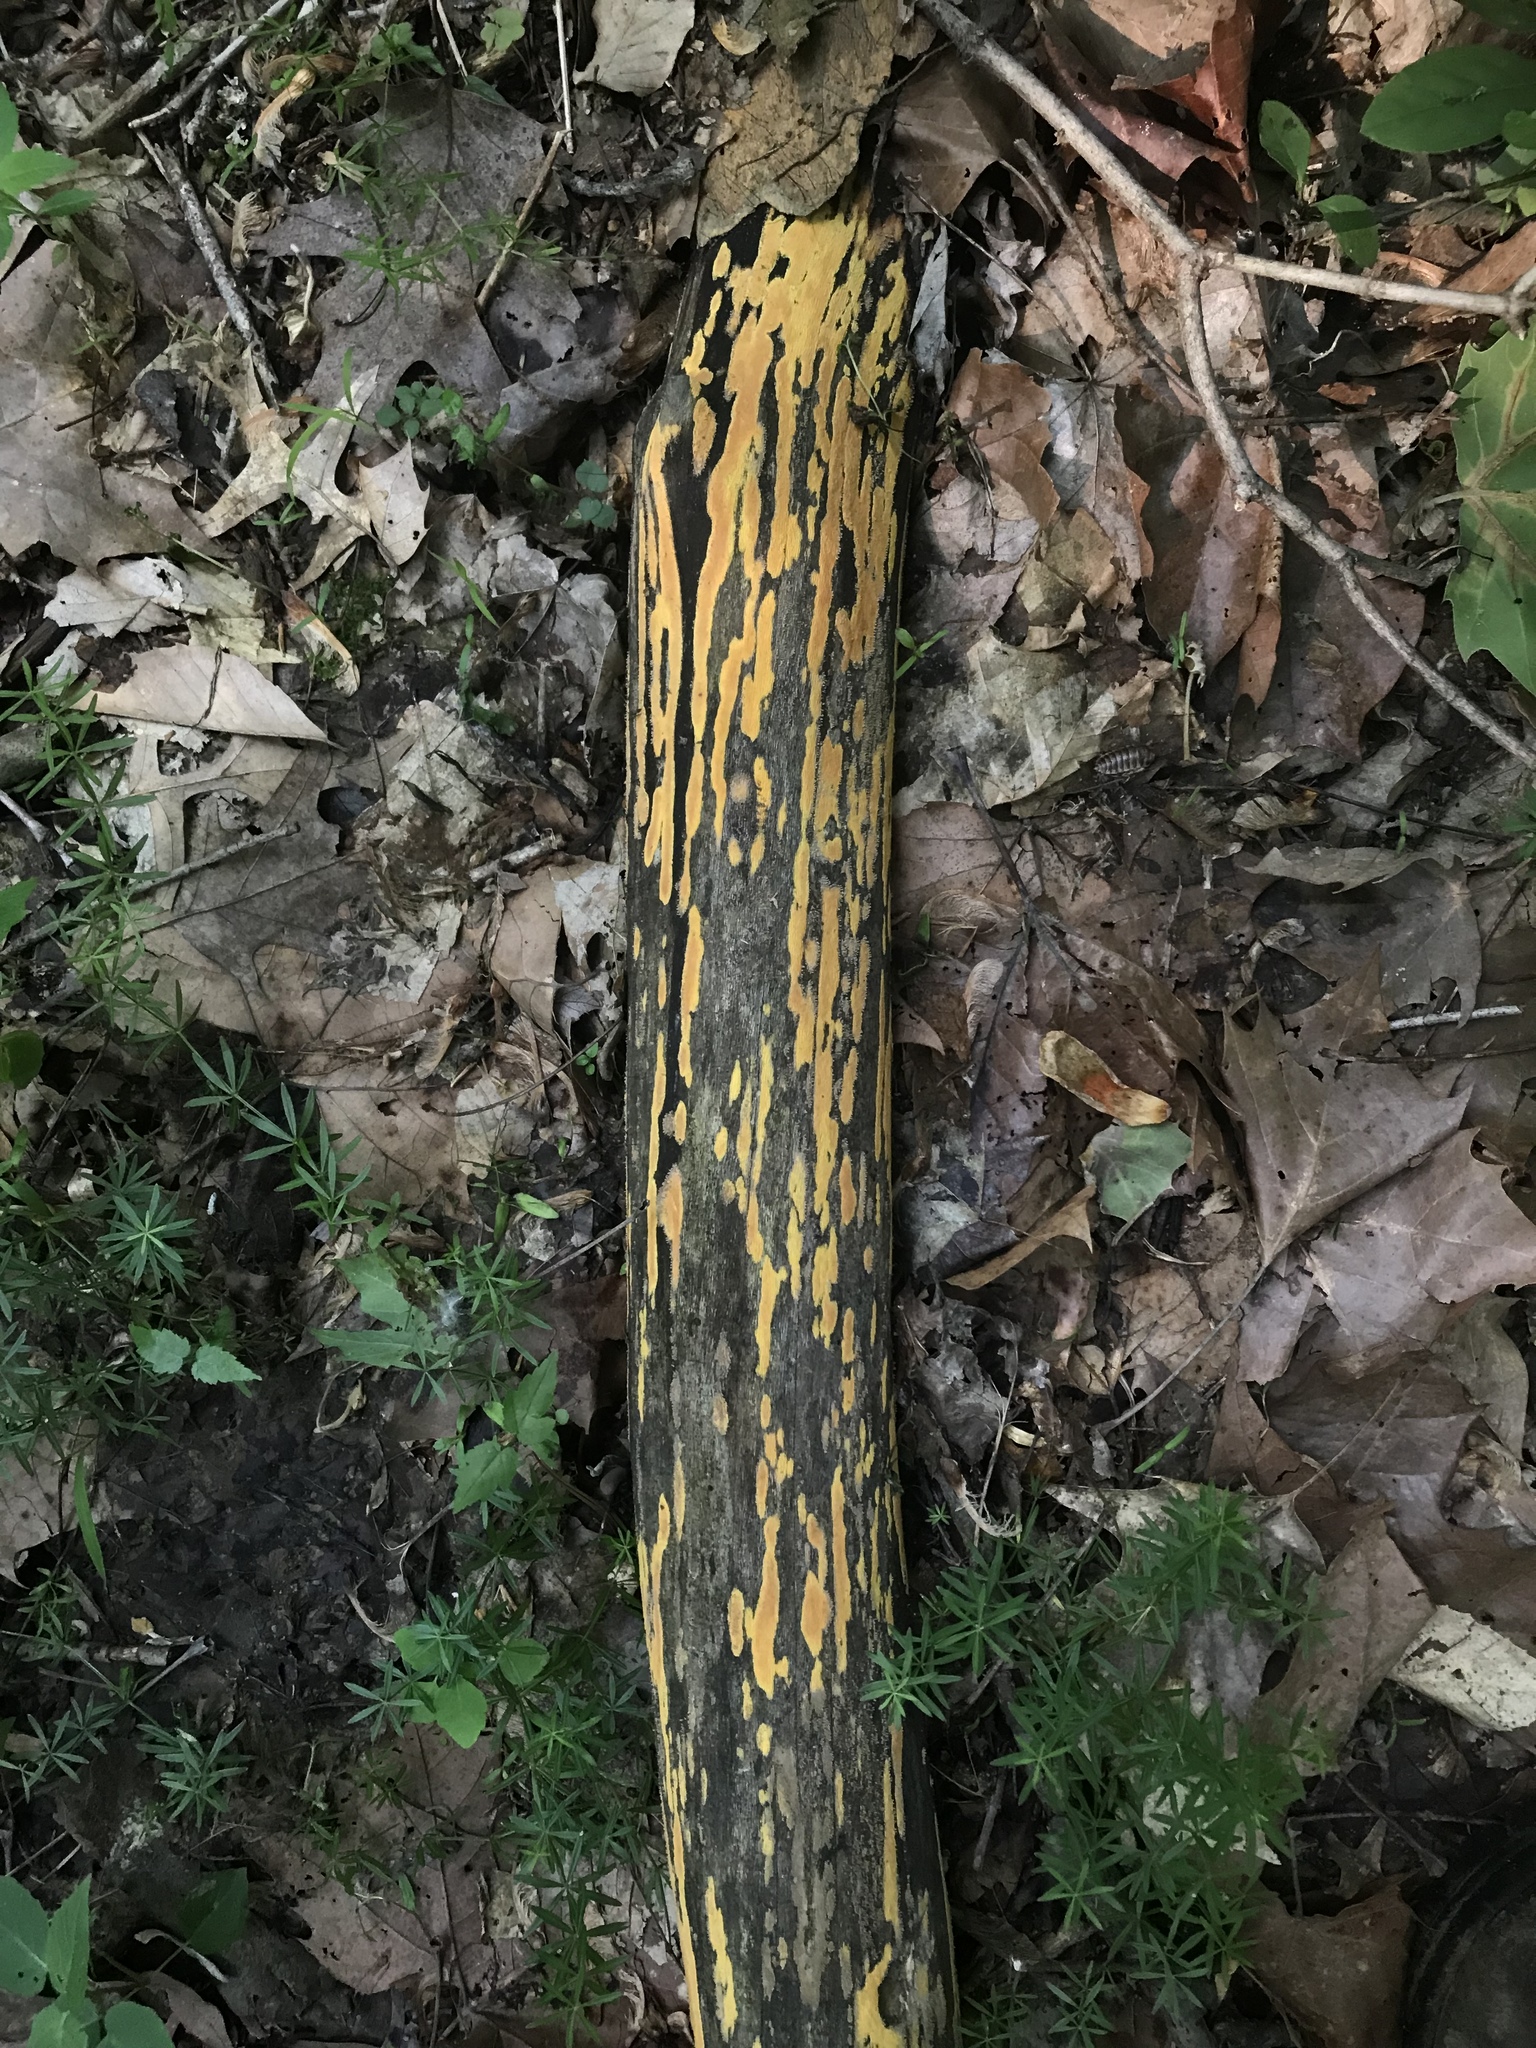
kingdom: Fungi
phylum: Ascomycota
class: Sordariomycetes
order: Xylariales
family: Hypoxylaceae
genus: Hypoxylon
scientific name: Hypoxylon crocopeplum
